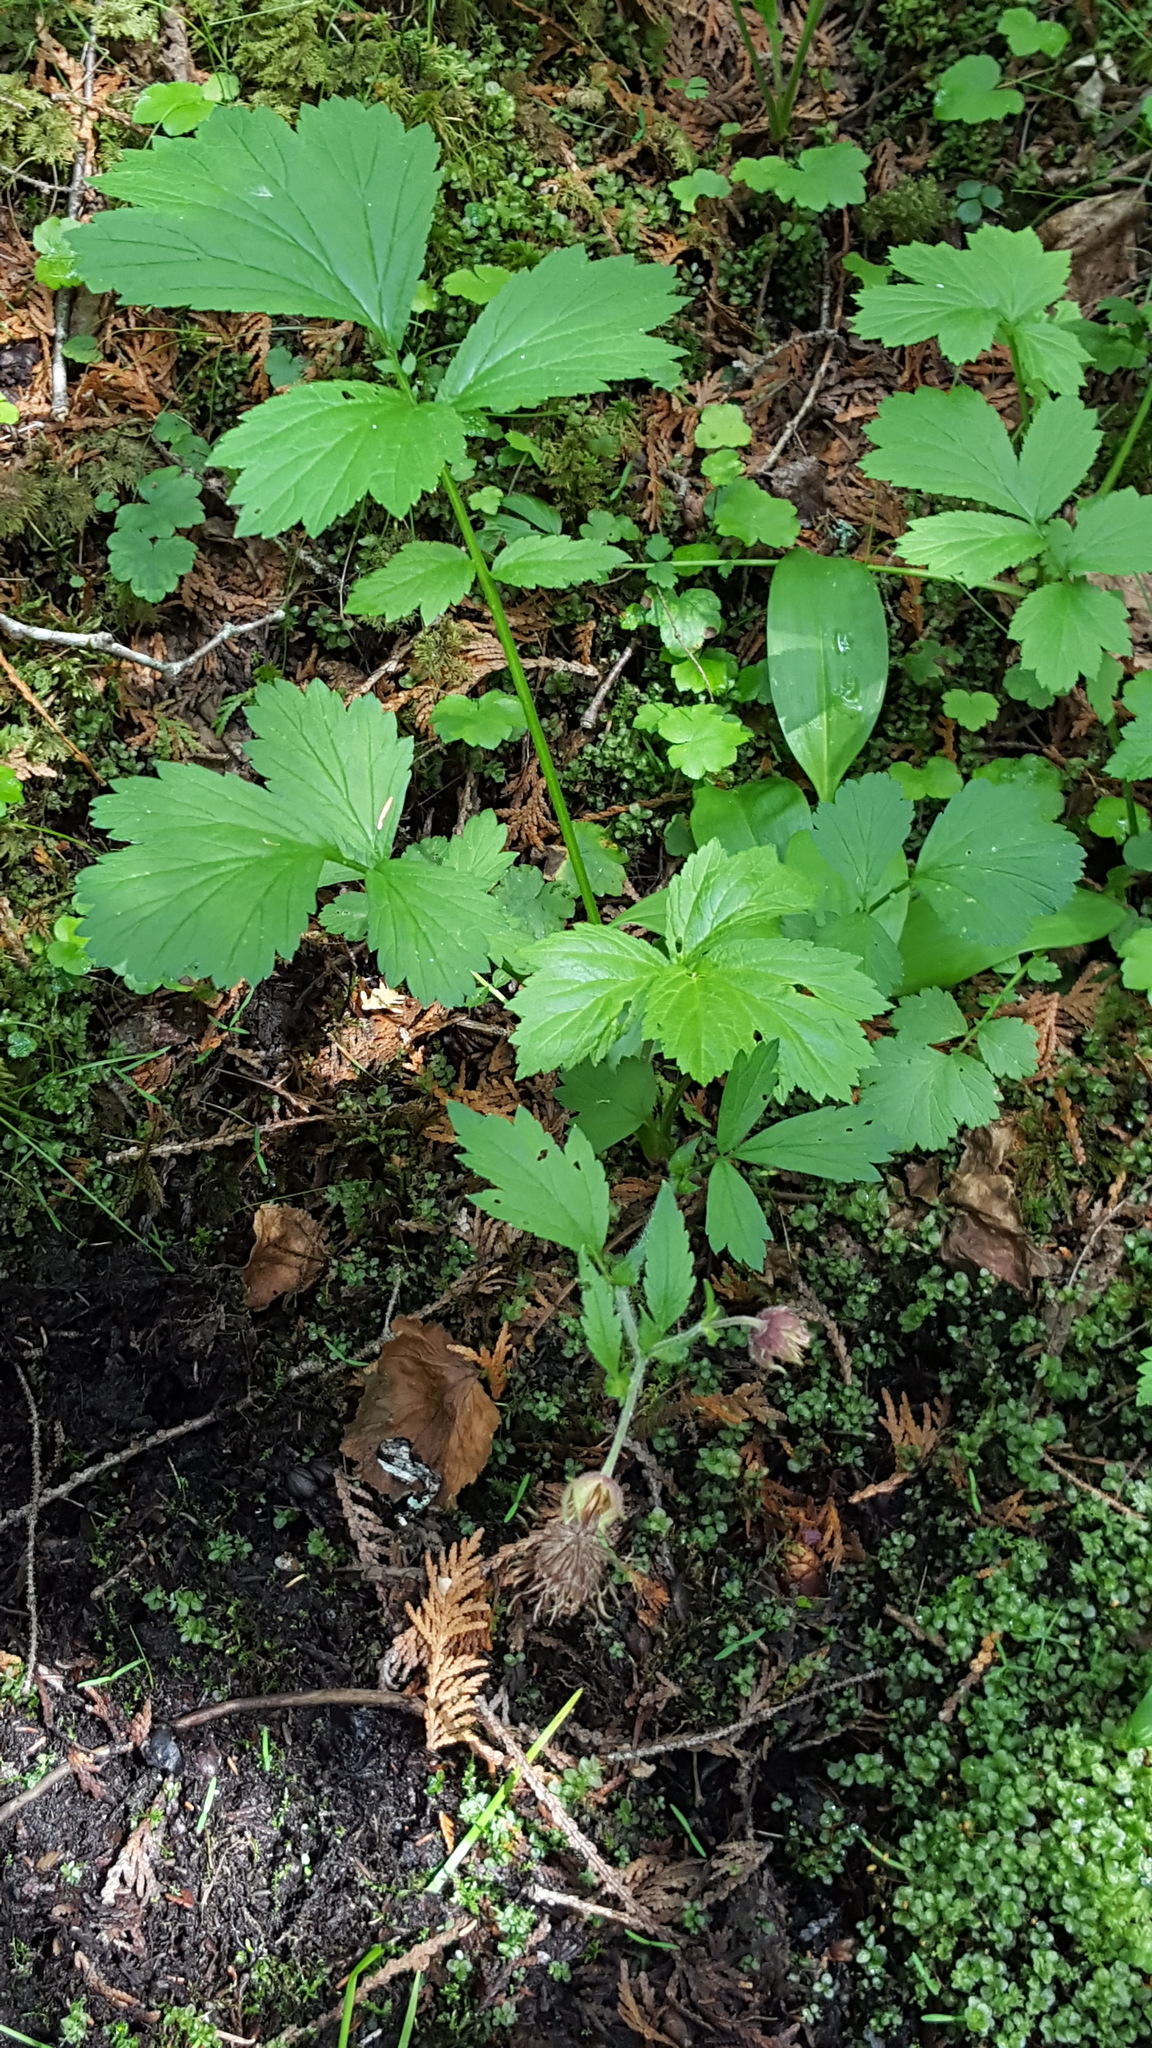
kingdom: Plantae
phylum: Tracheophyta
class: Magnoliopsida
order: Rosales
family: Rosaceae
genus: Geum
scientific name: Geum rivale
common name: Water avens
